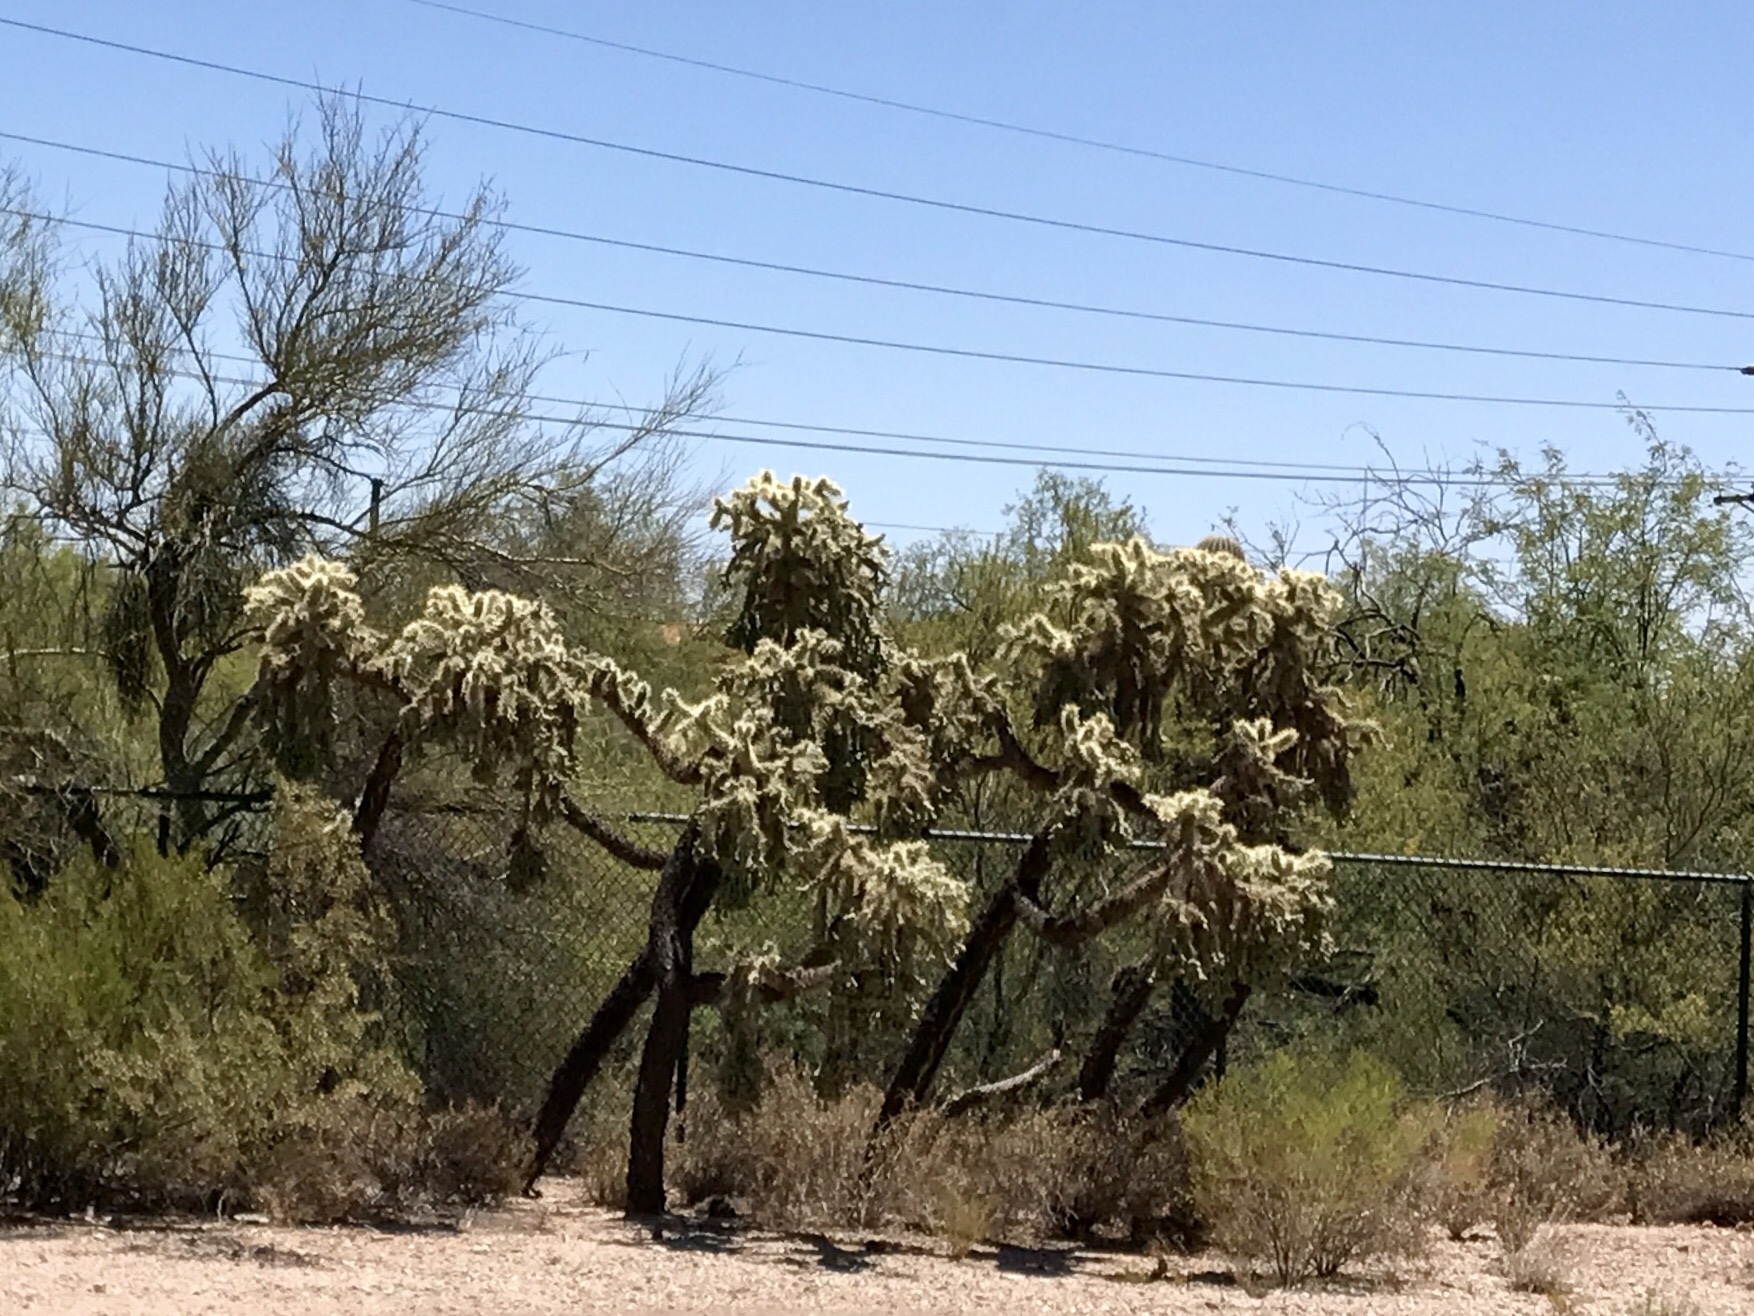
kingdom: Plantae
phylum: Tracheophyta
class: Magnoliopsida
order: Caryophyllales
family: Cactaceae
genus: Cylindropuntia
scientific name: Cylindropuntia fulgida
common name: Jumping cholla
